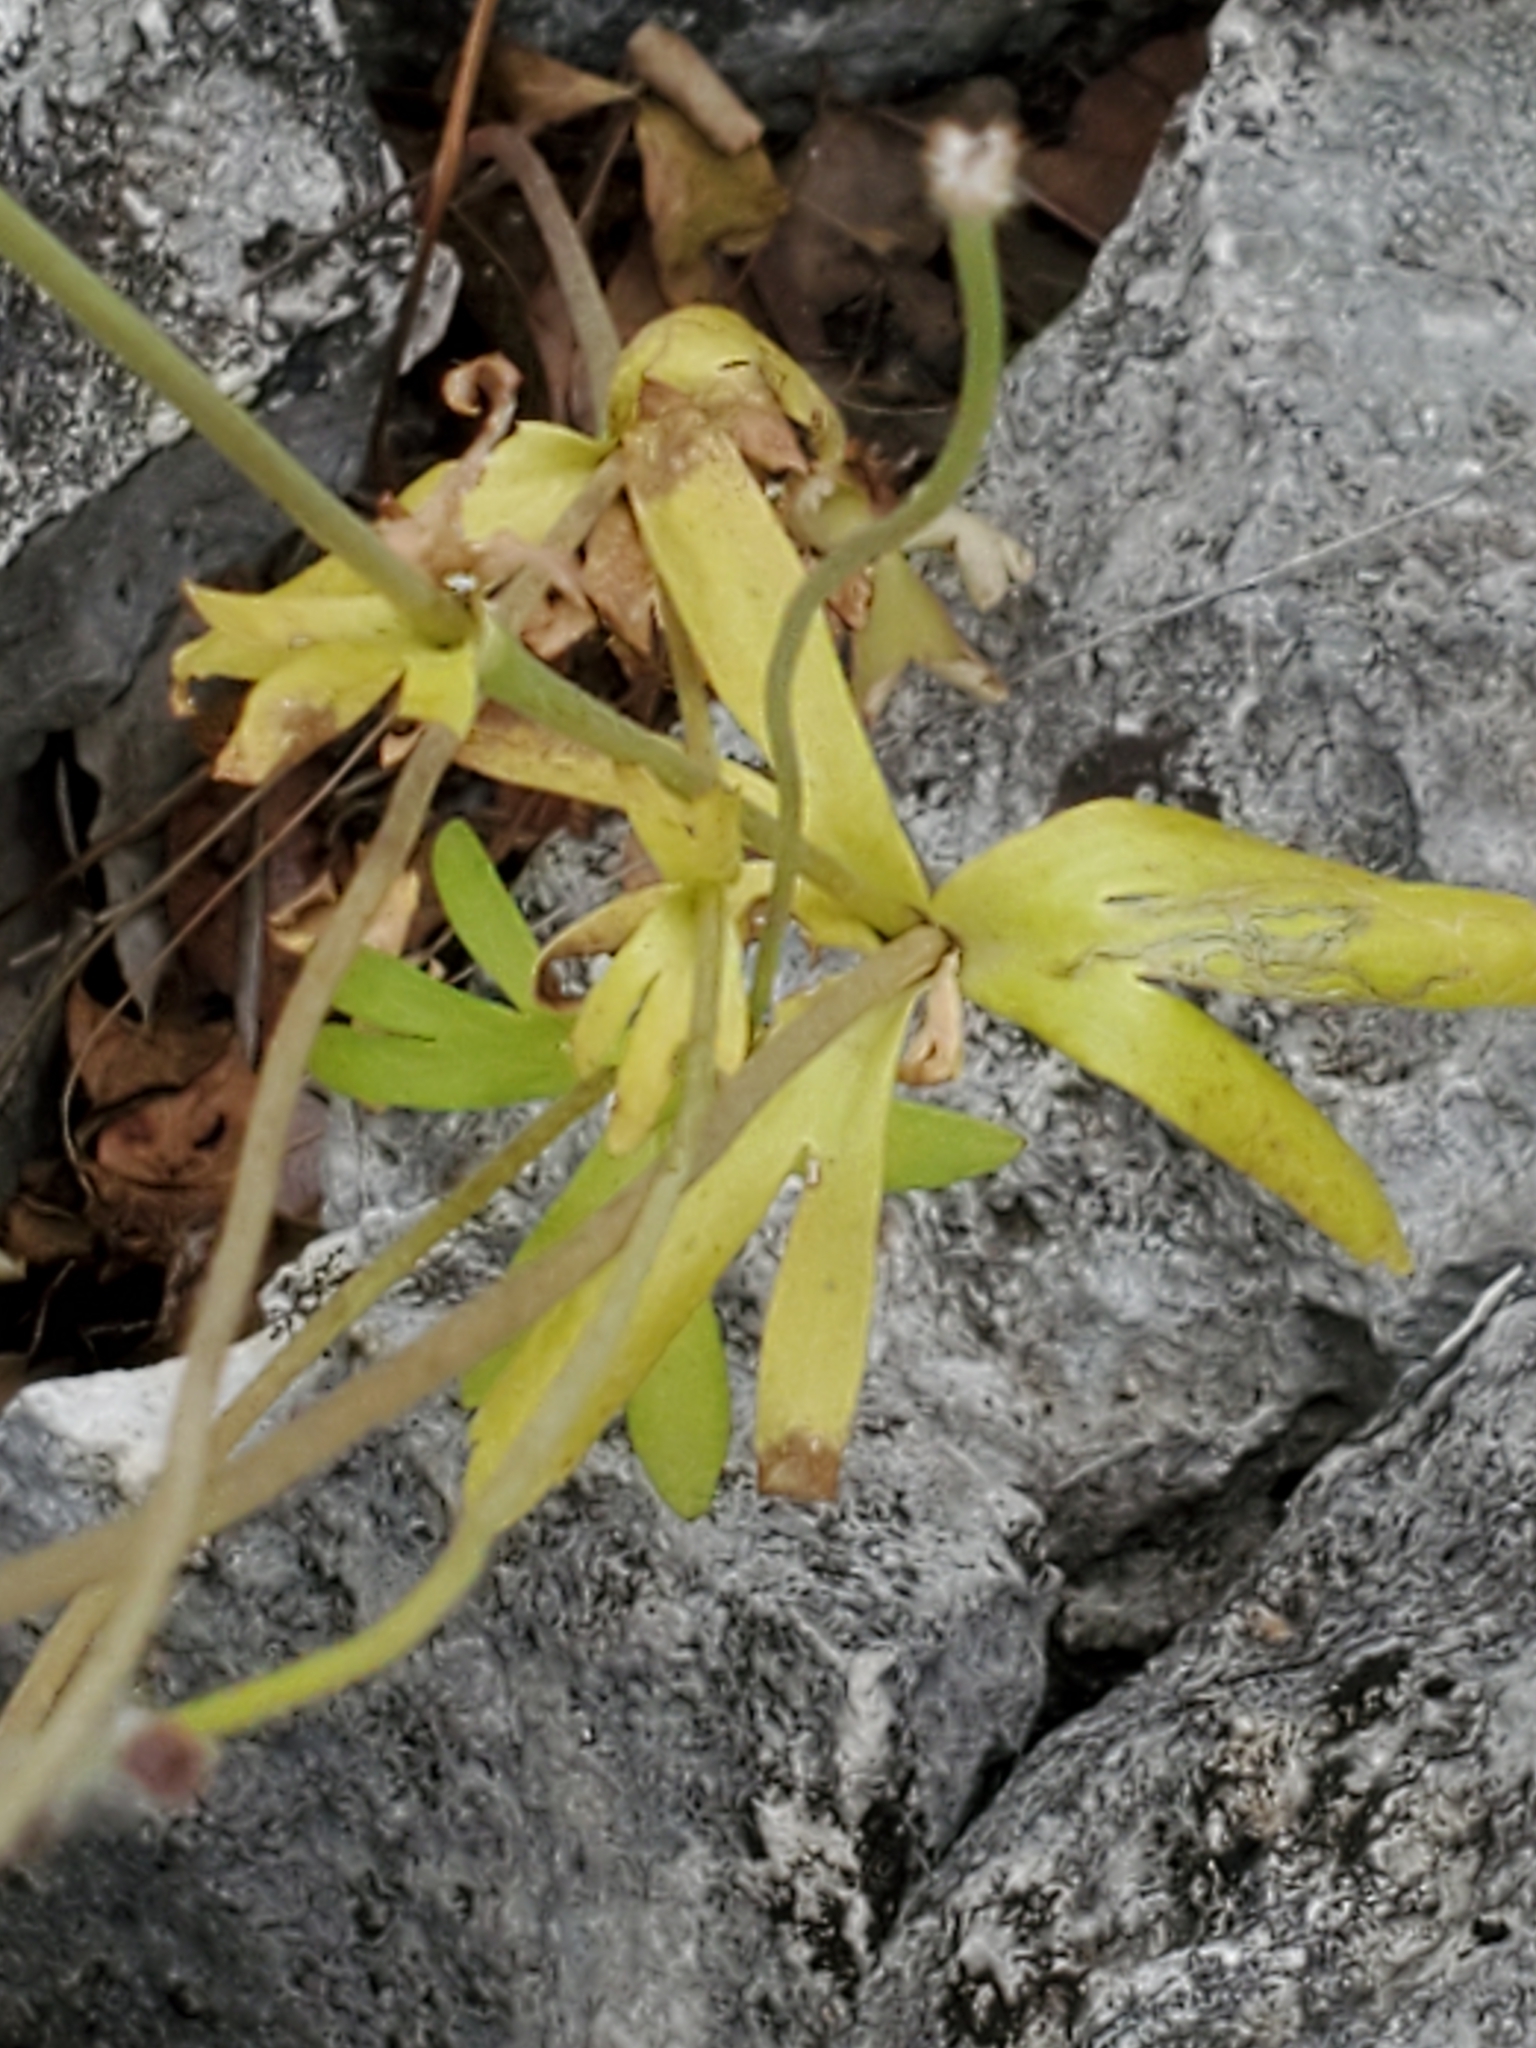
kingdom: Plantae
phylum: Tracheophyta
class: Magnoliopsida
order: Ranunculales
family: Ranunculaceae
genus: Anemone
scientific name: Anemone edwardsiana
